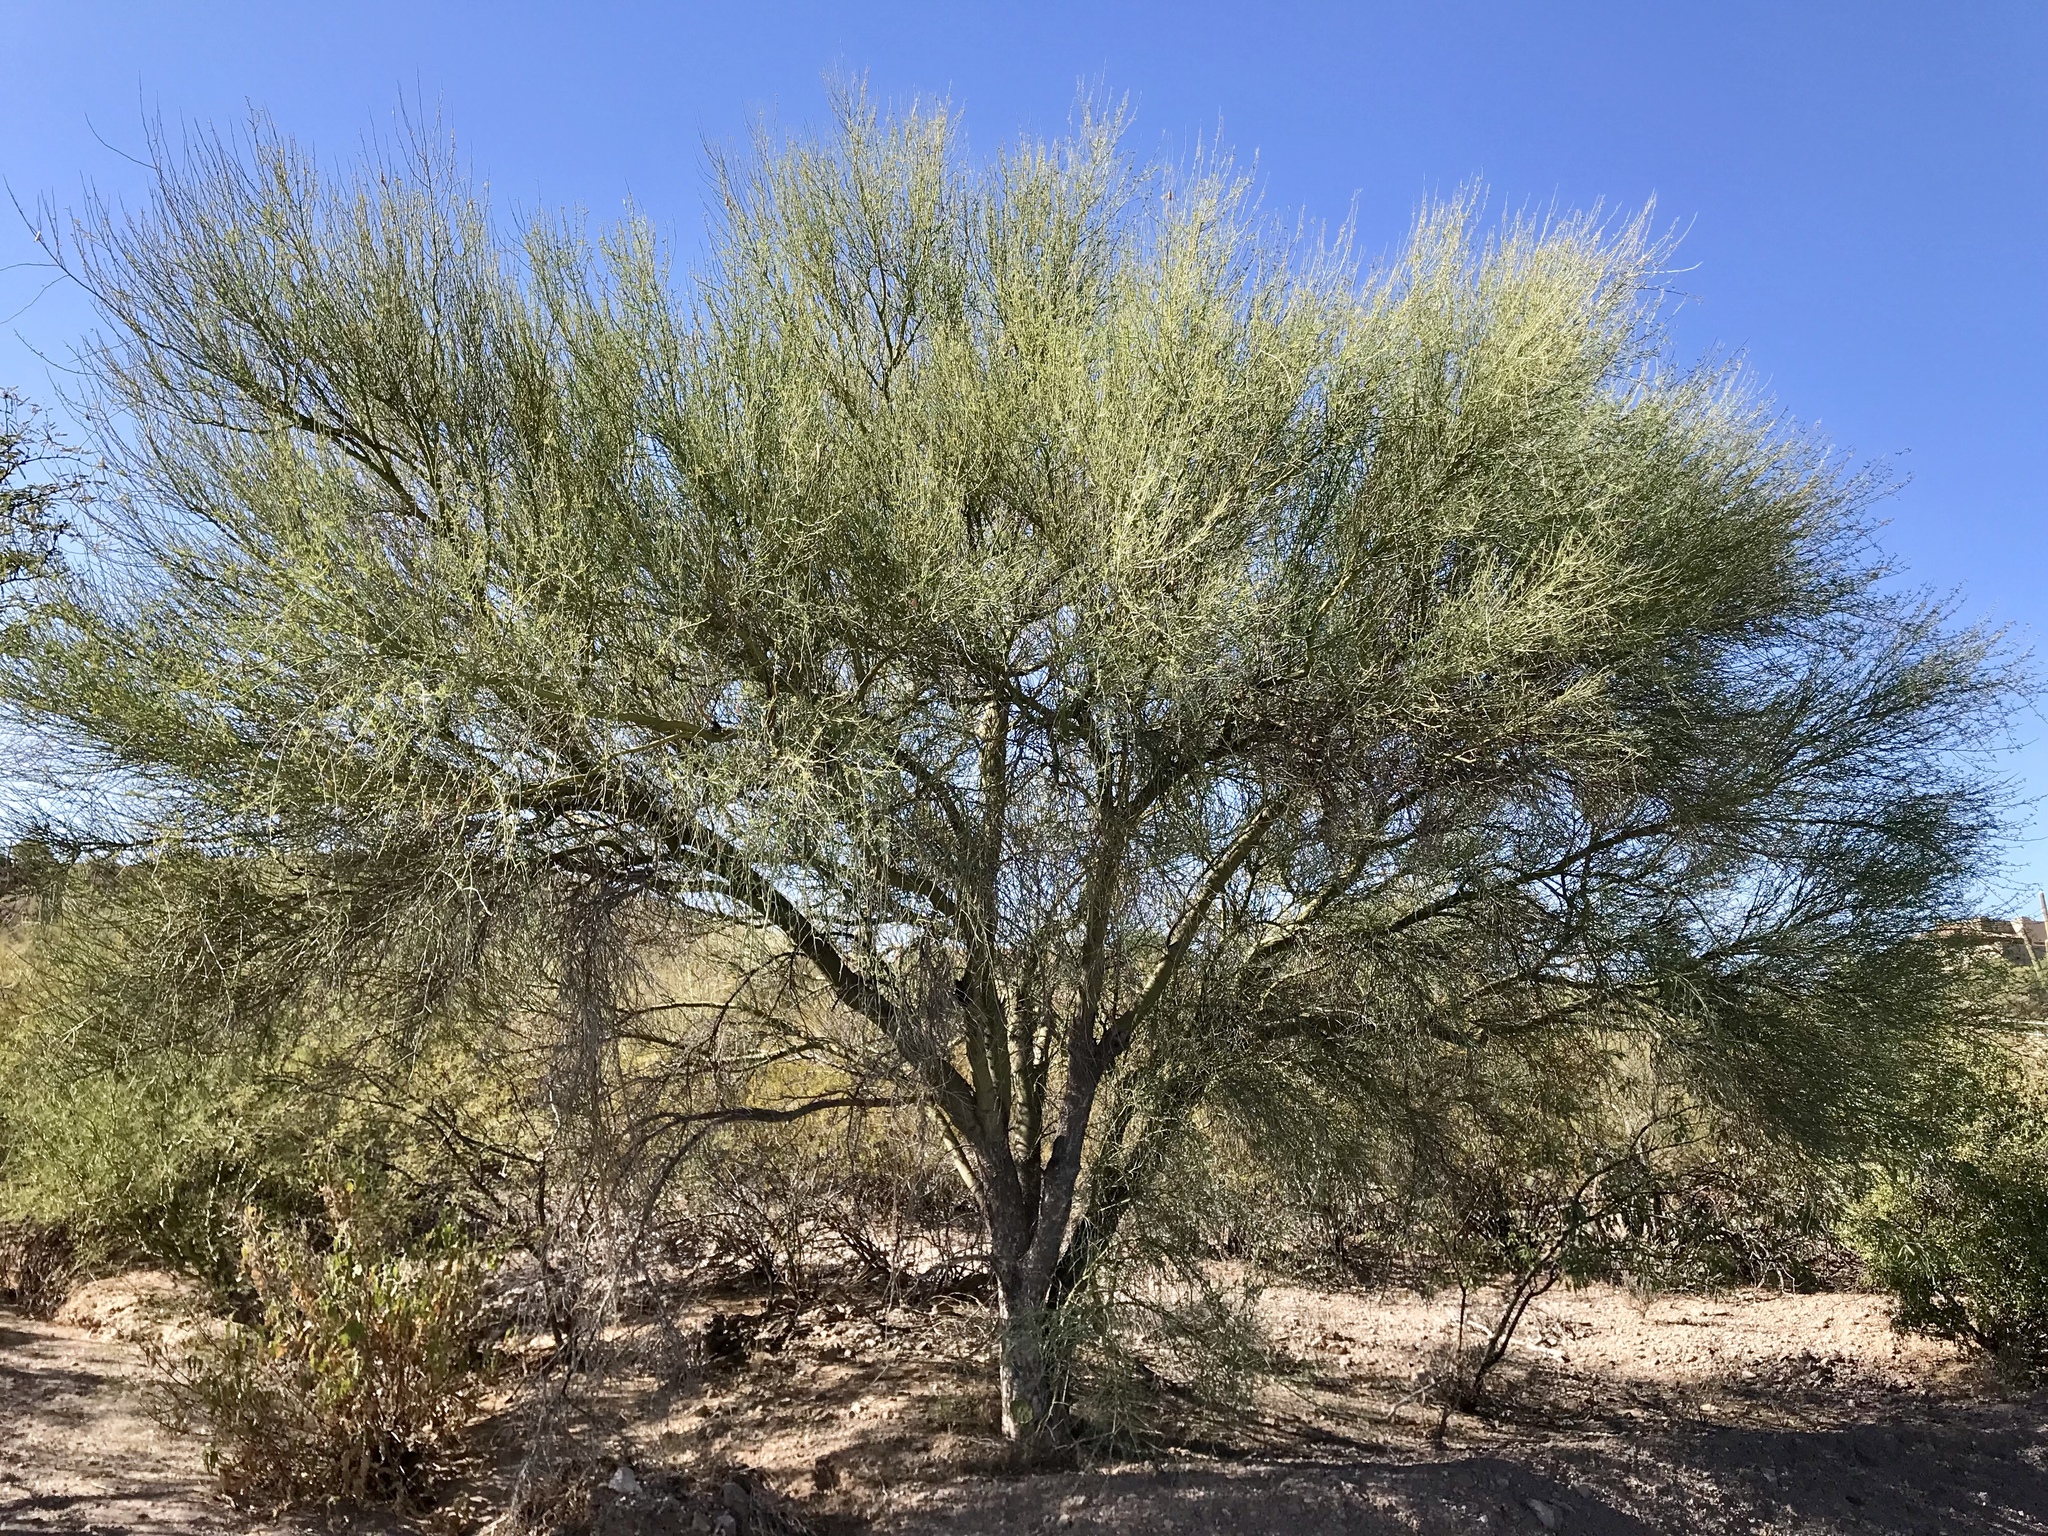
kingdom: Plantae
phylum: Tracheophyta
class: Magnoliopsida
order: Fabales
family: Fabaceae
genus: Parkinsonia
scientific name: Parkinsonia florida
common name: Blue paloverde
